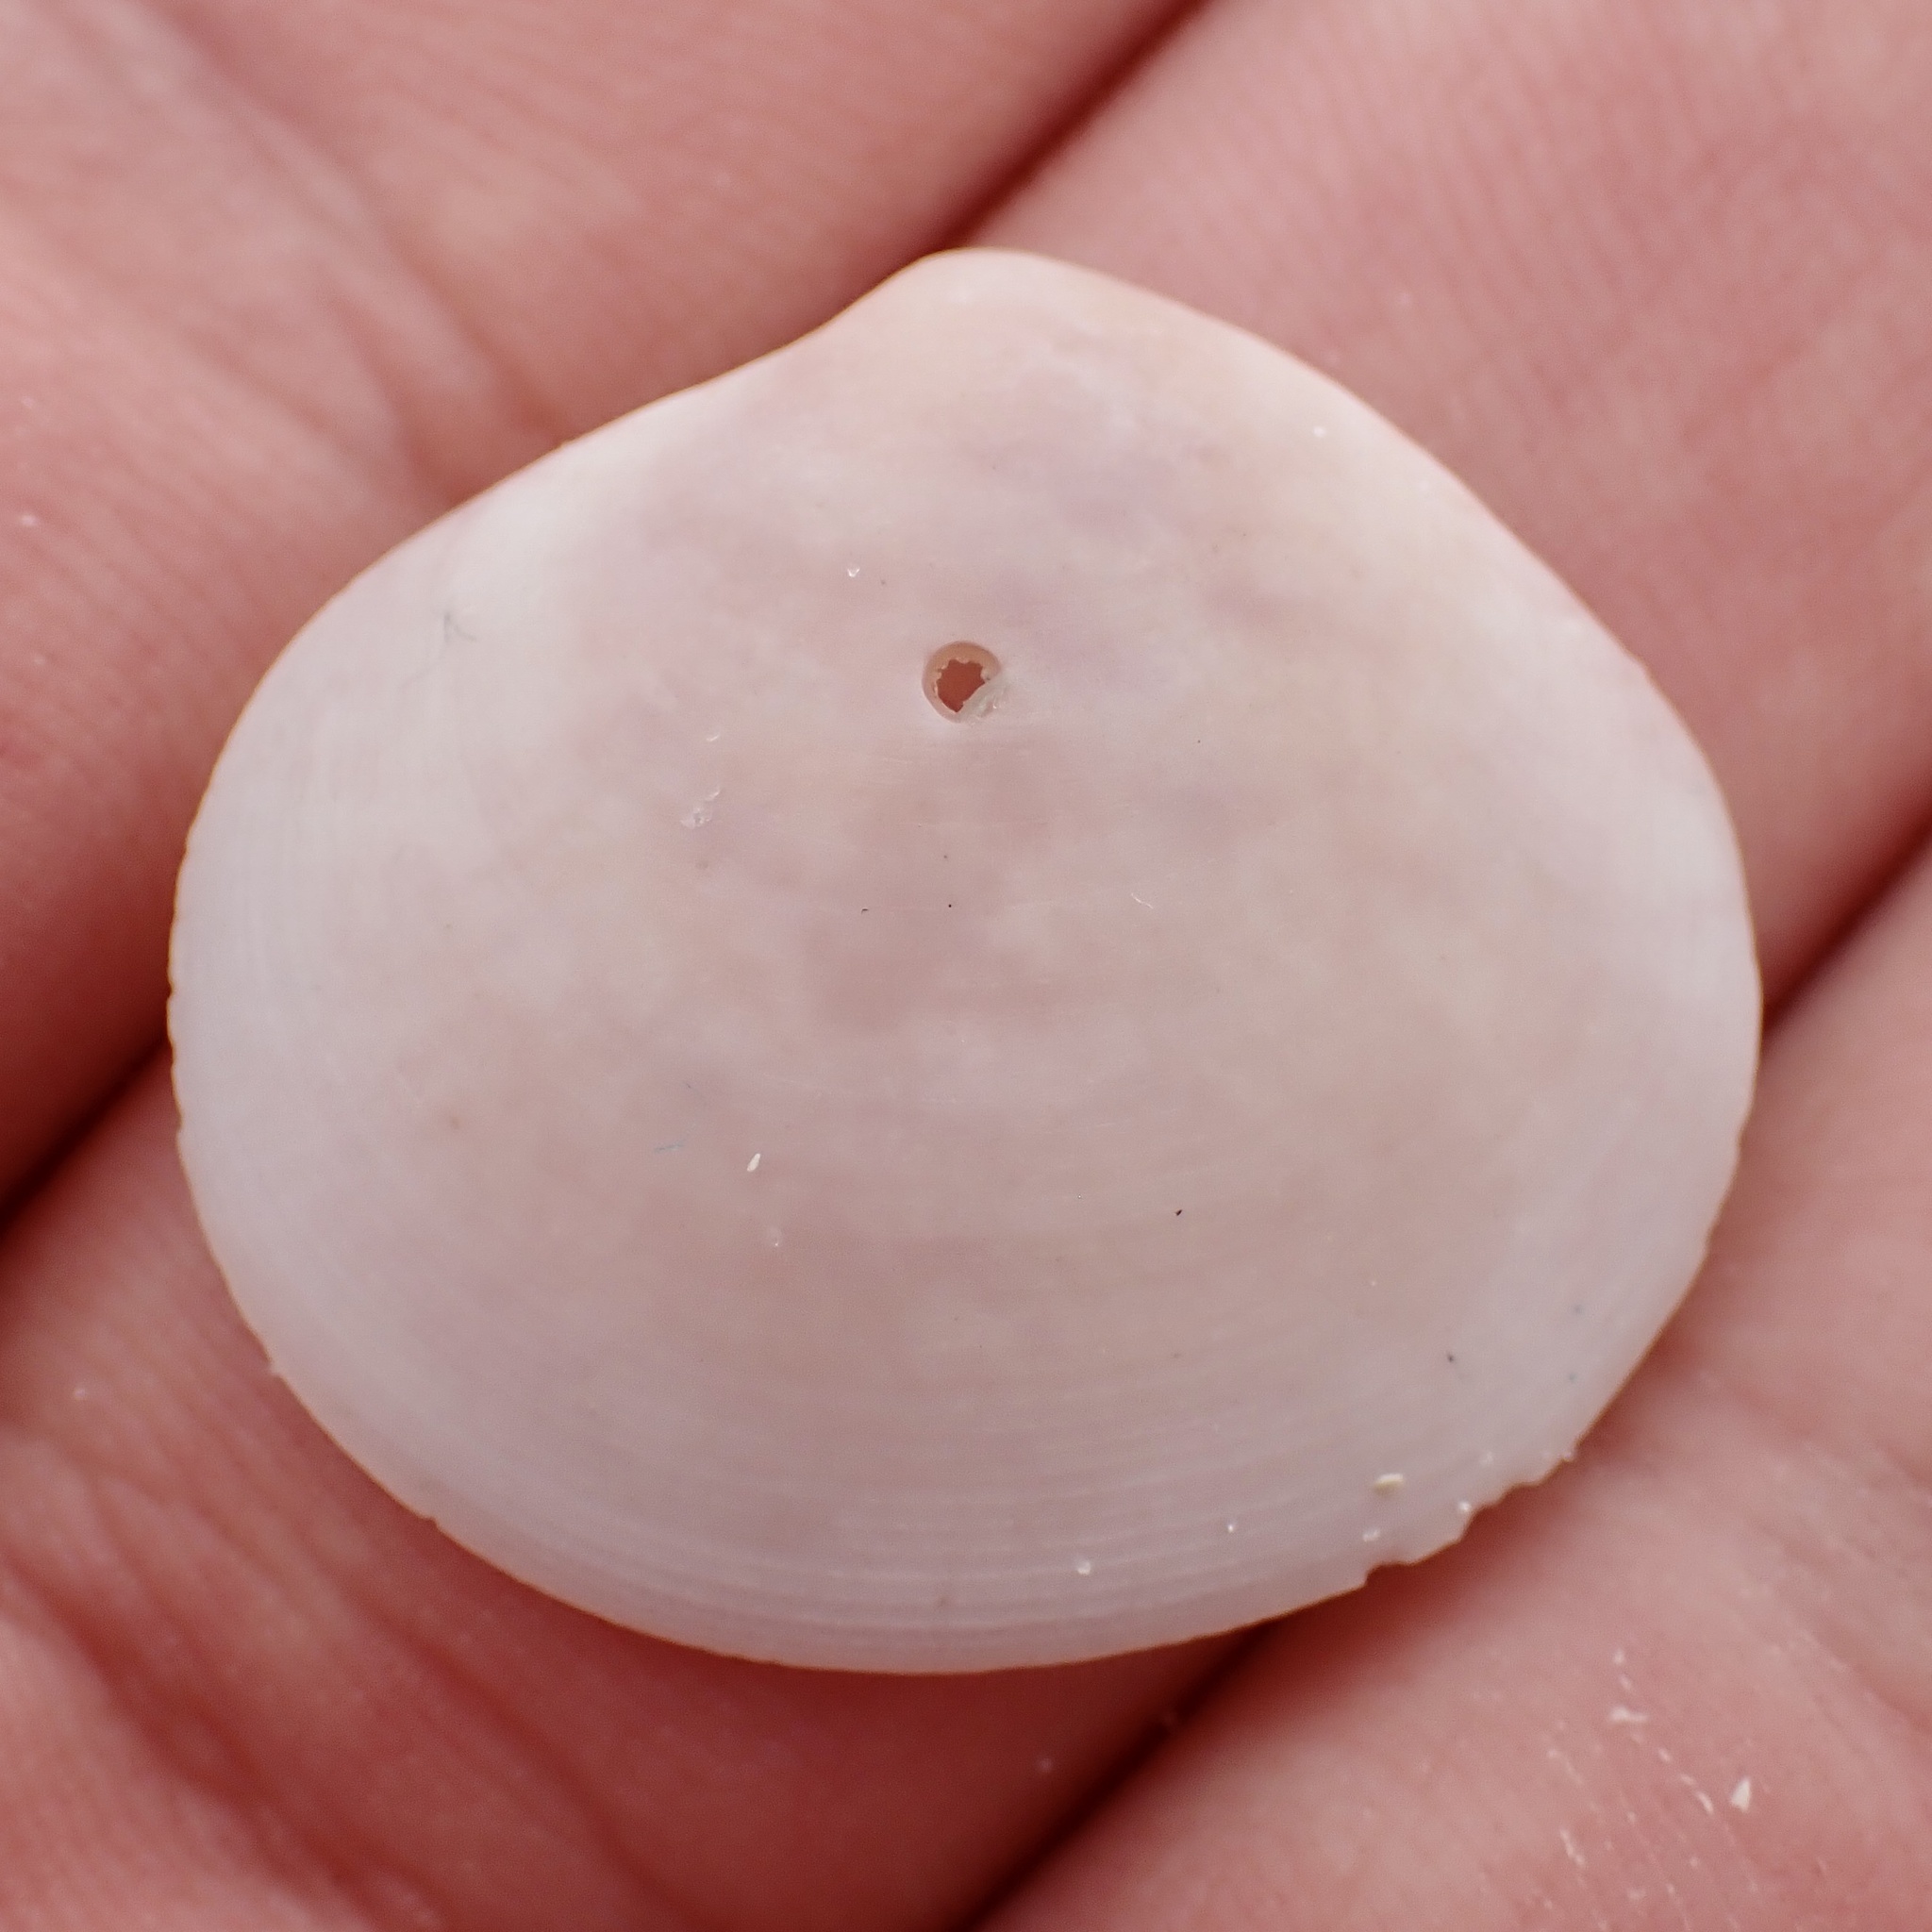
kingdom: Animalia
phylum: Mollusca
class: Bivalvia
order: Cardiida
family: Semelidae
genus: Semele
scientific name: Semele proficua
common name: White atlantic semele
